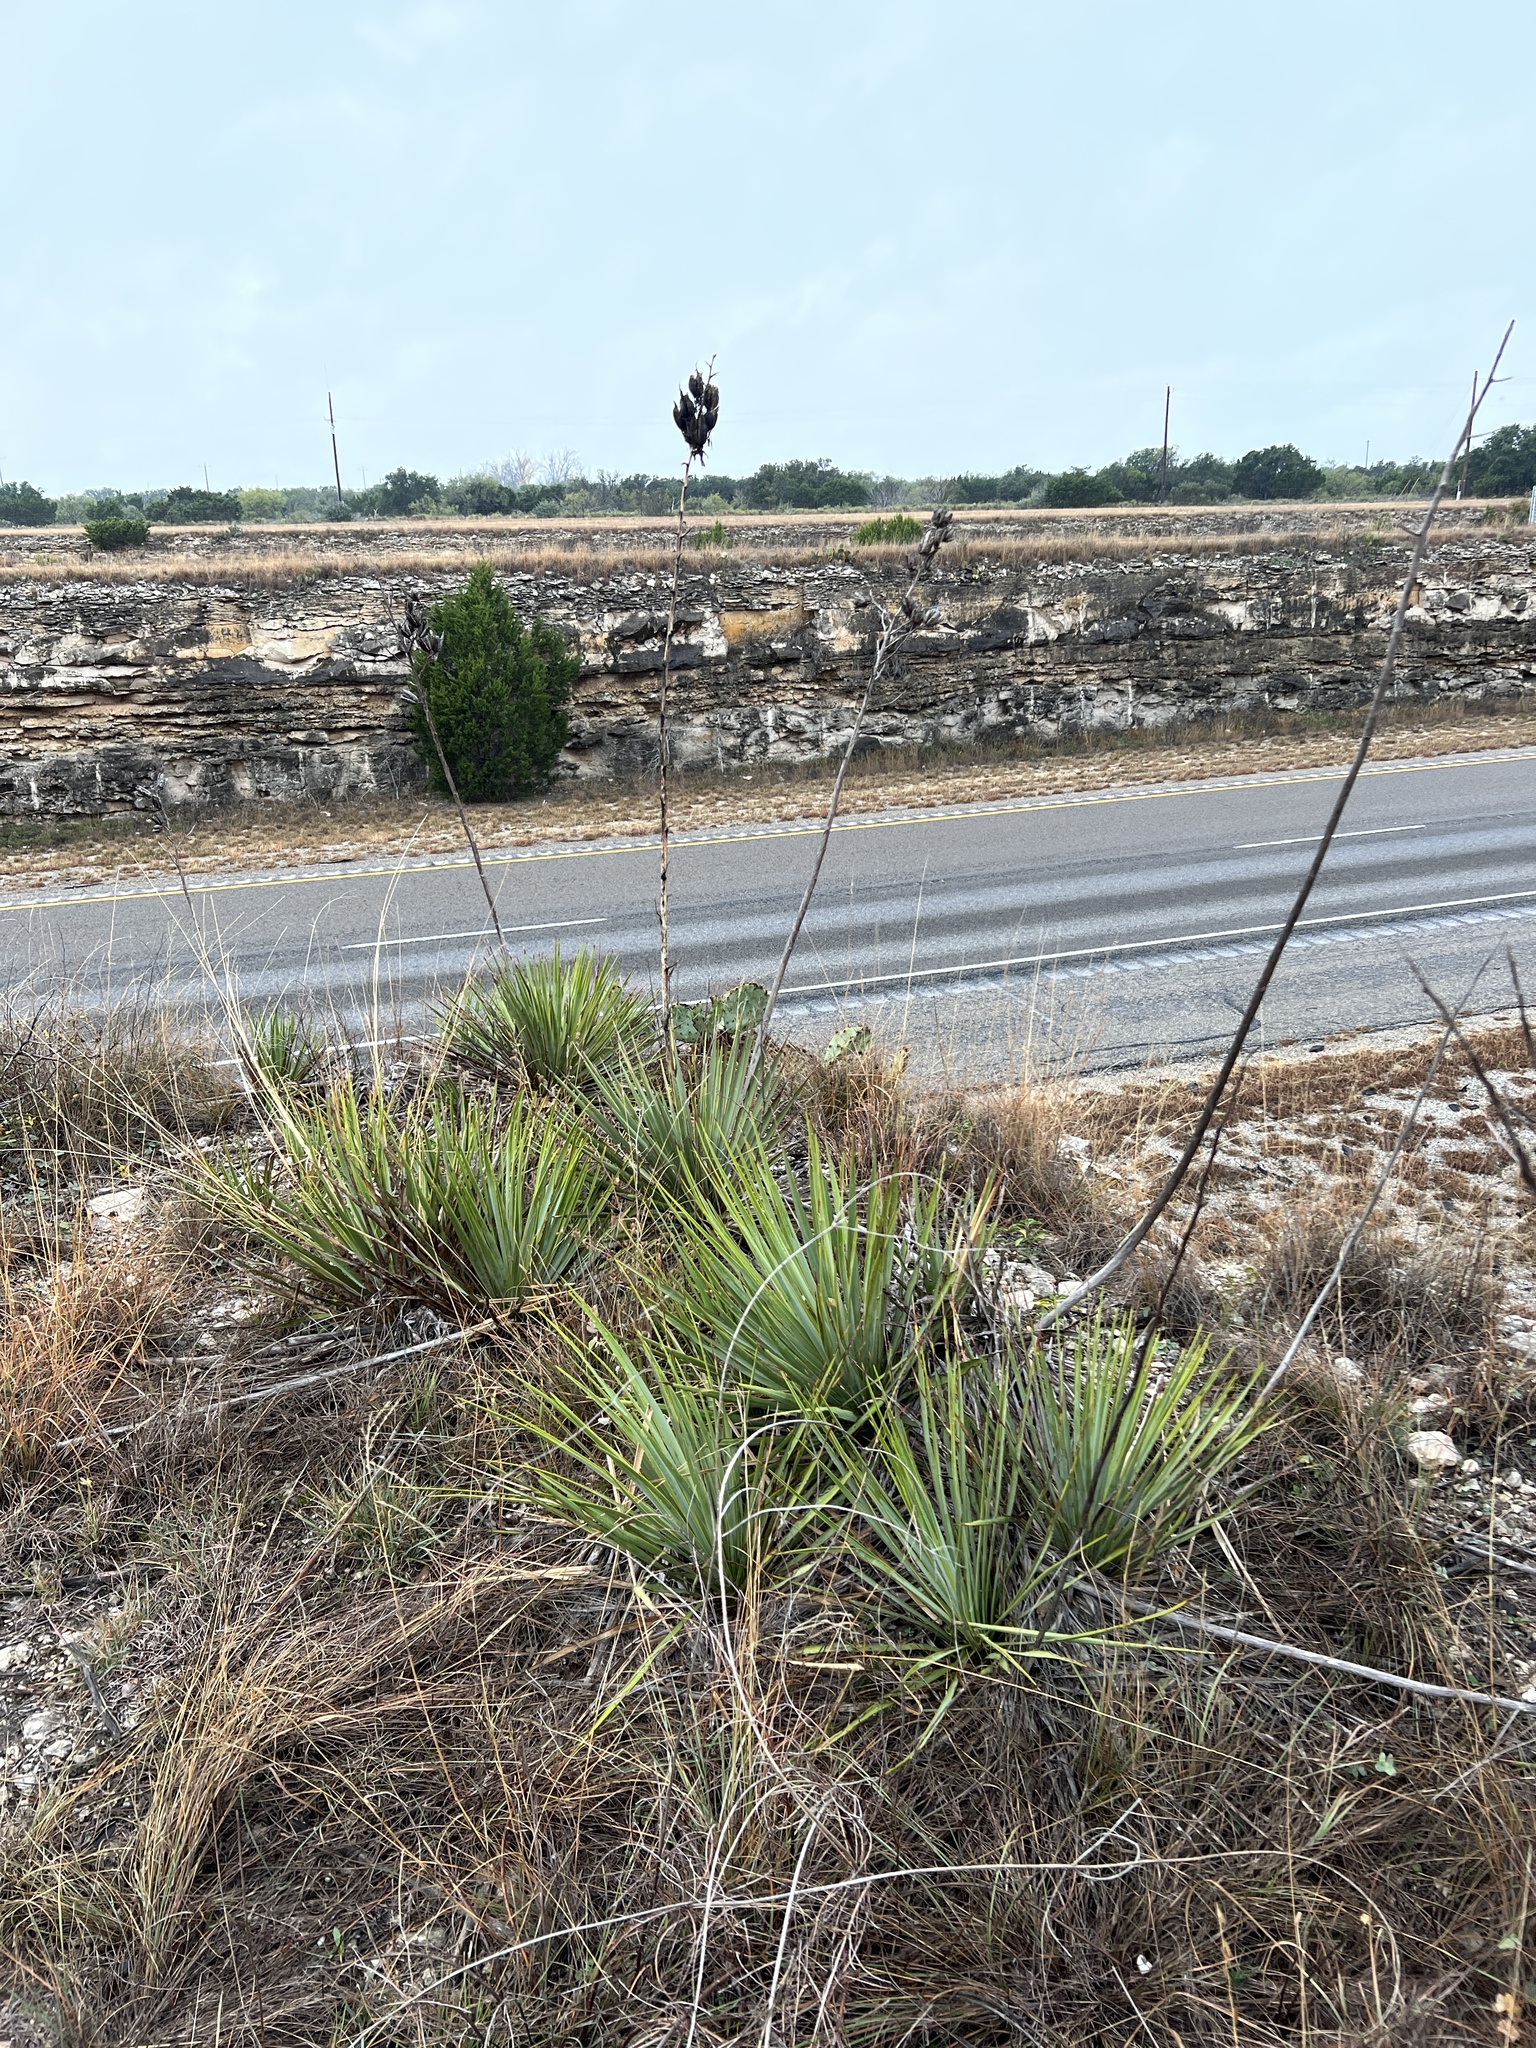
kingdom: Plantae
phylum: Tracheophyta
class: Liliopsida
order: Asparagales
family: Asparagaceae
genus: Yucca
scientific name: Yucca reverchonii
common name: San angelo yucca
